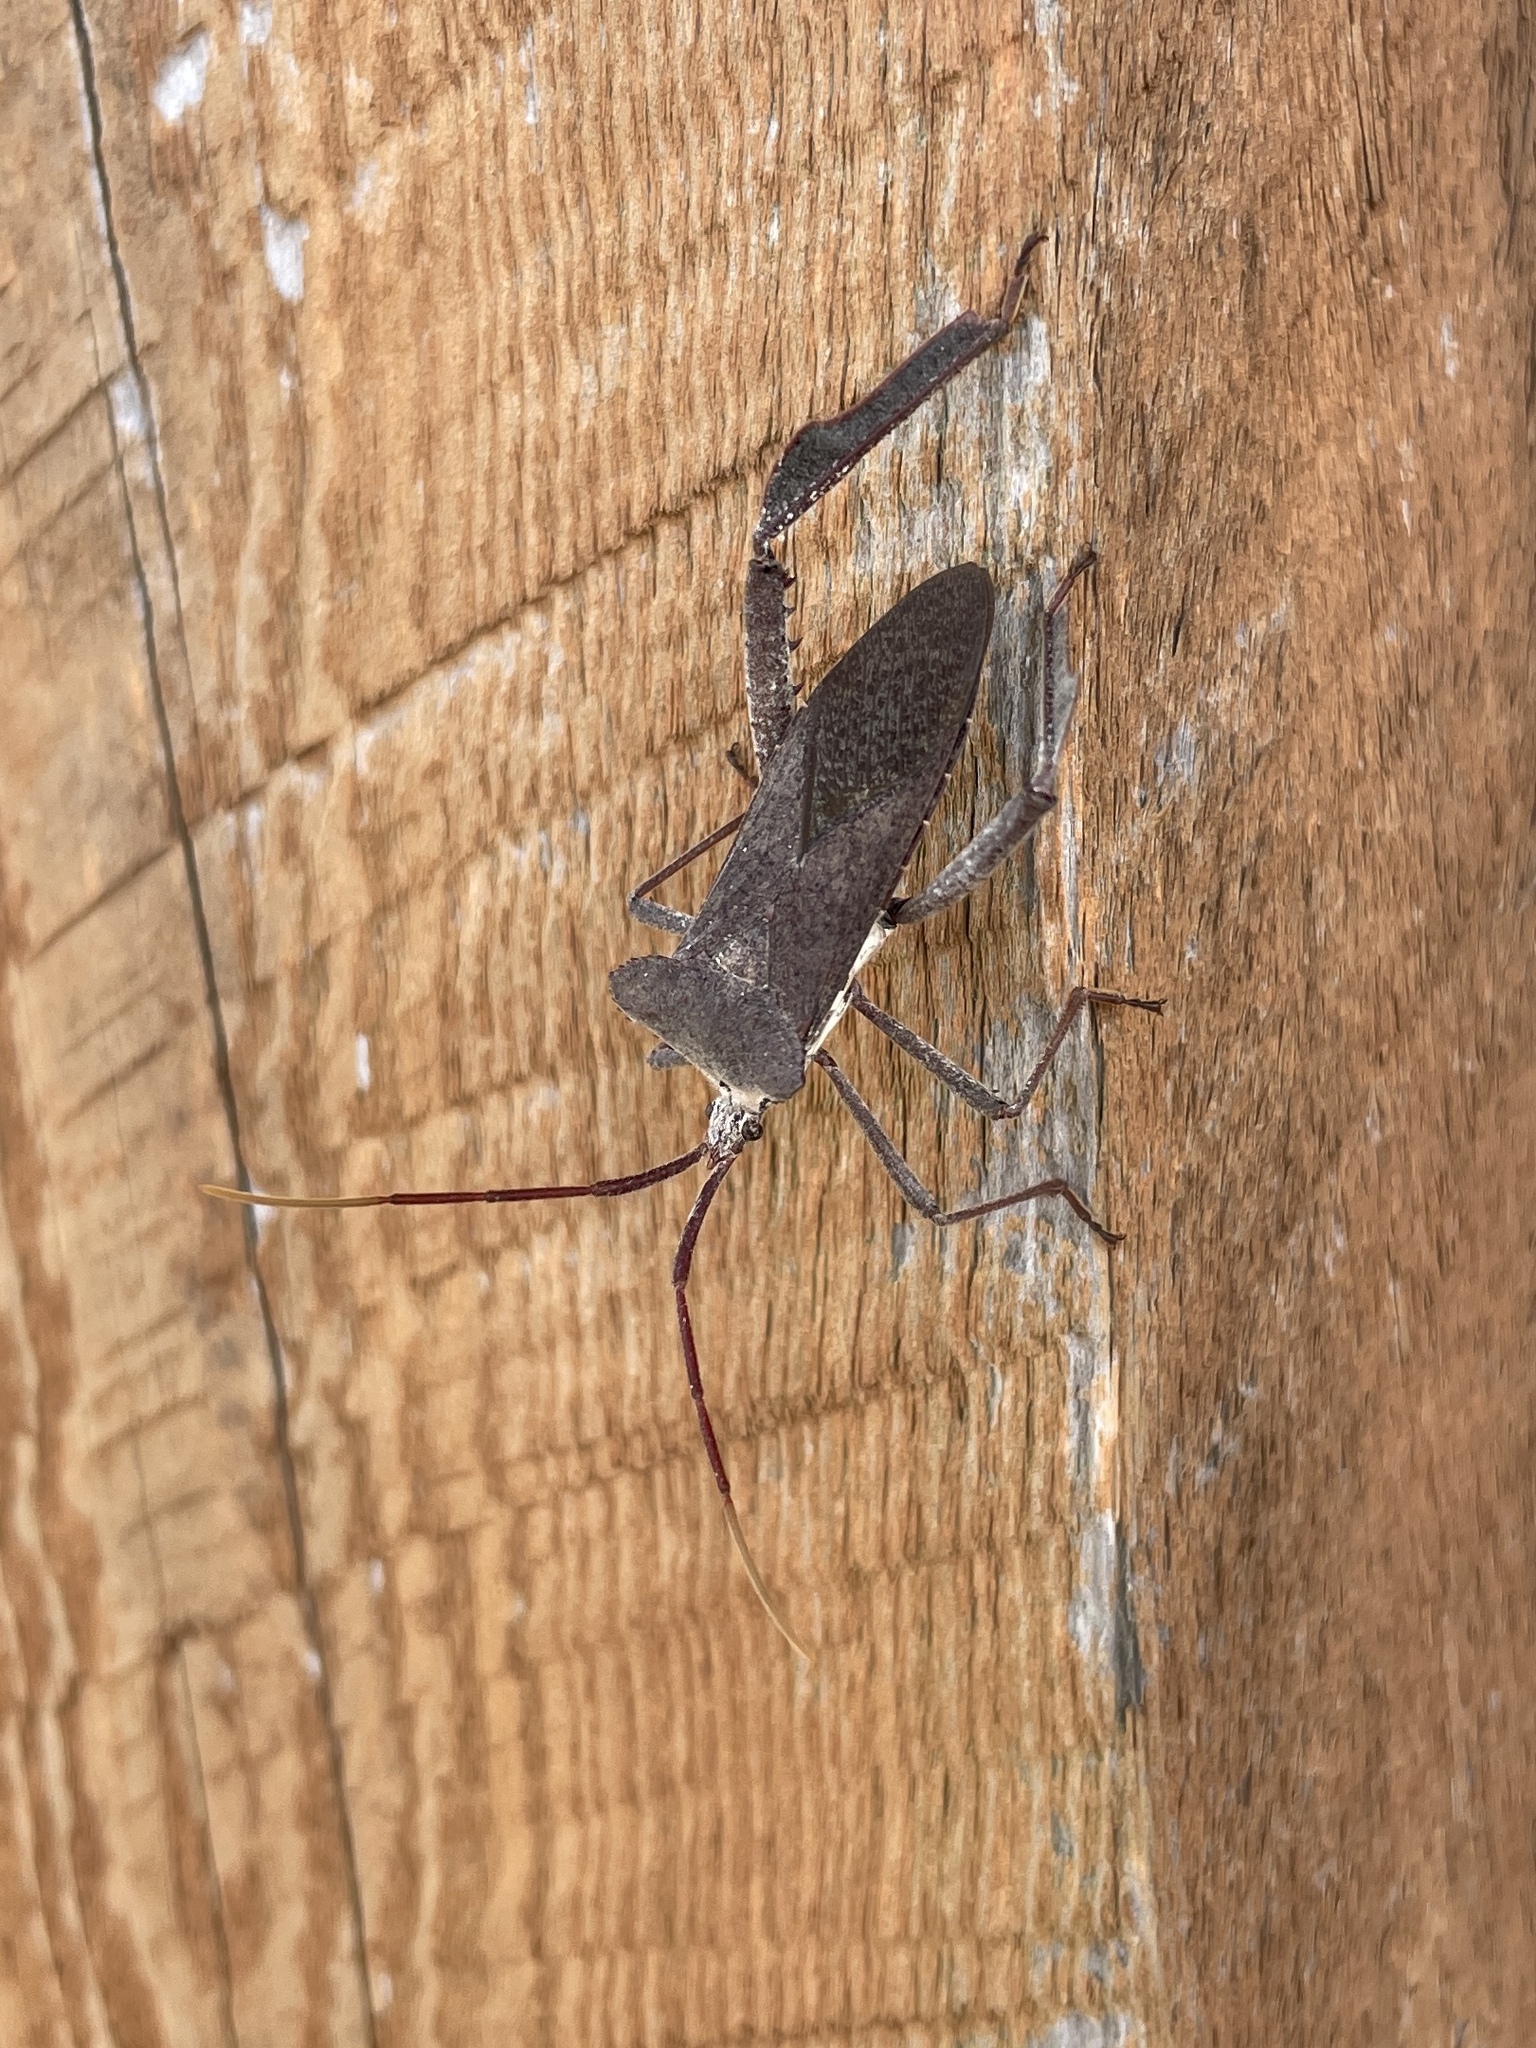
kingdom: Animalia
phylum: Arthropoda
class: Insecta
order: Hemiptera
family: Coreidae
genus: Acanthocephala
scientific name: Acanthocephala declivis
